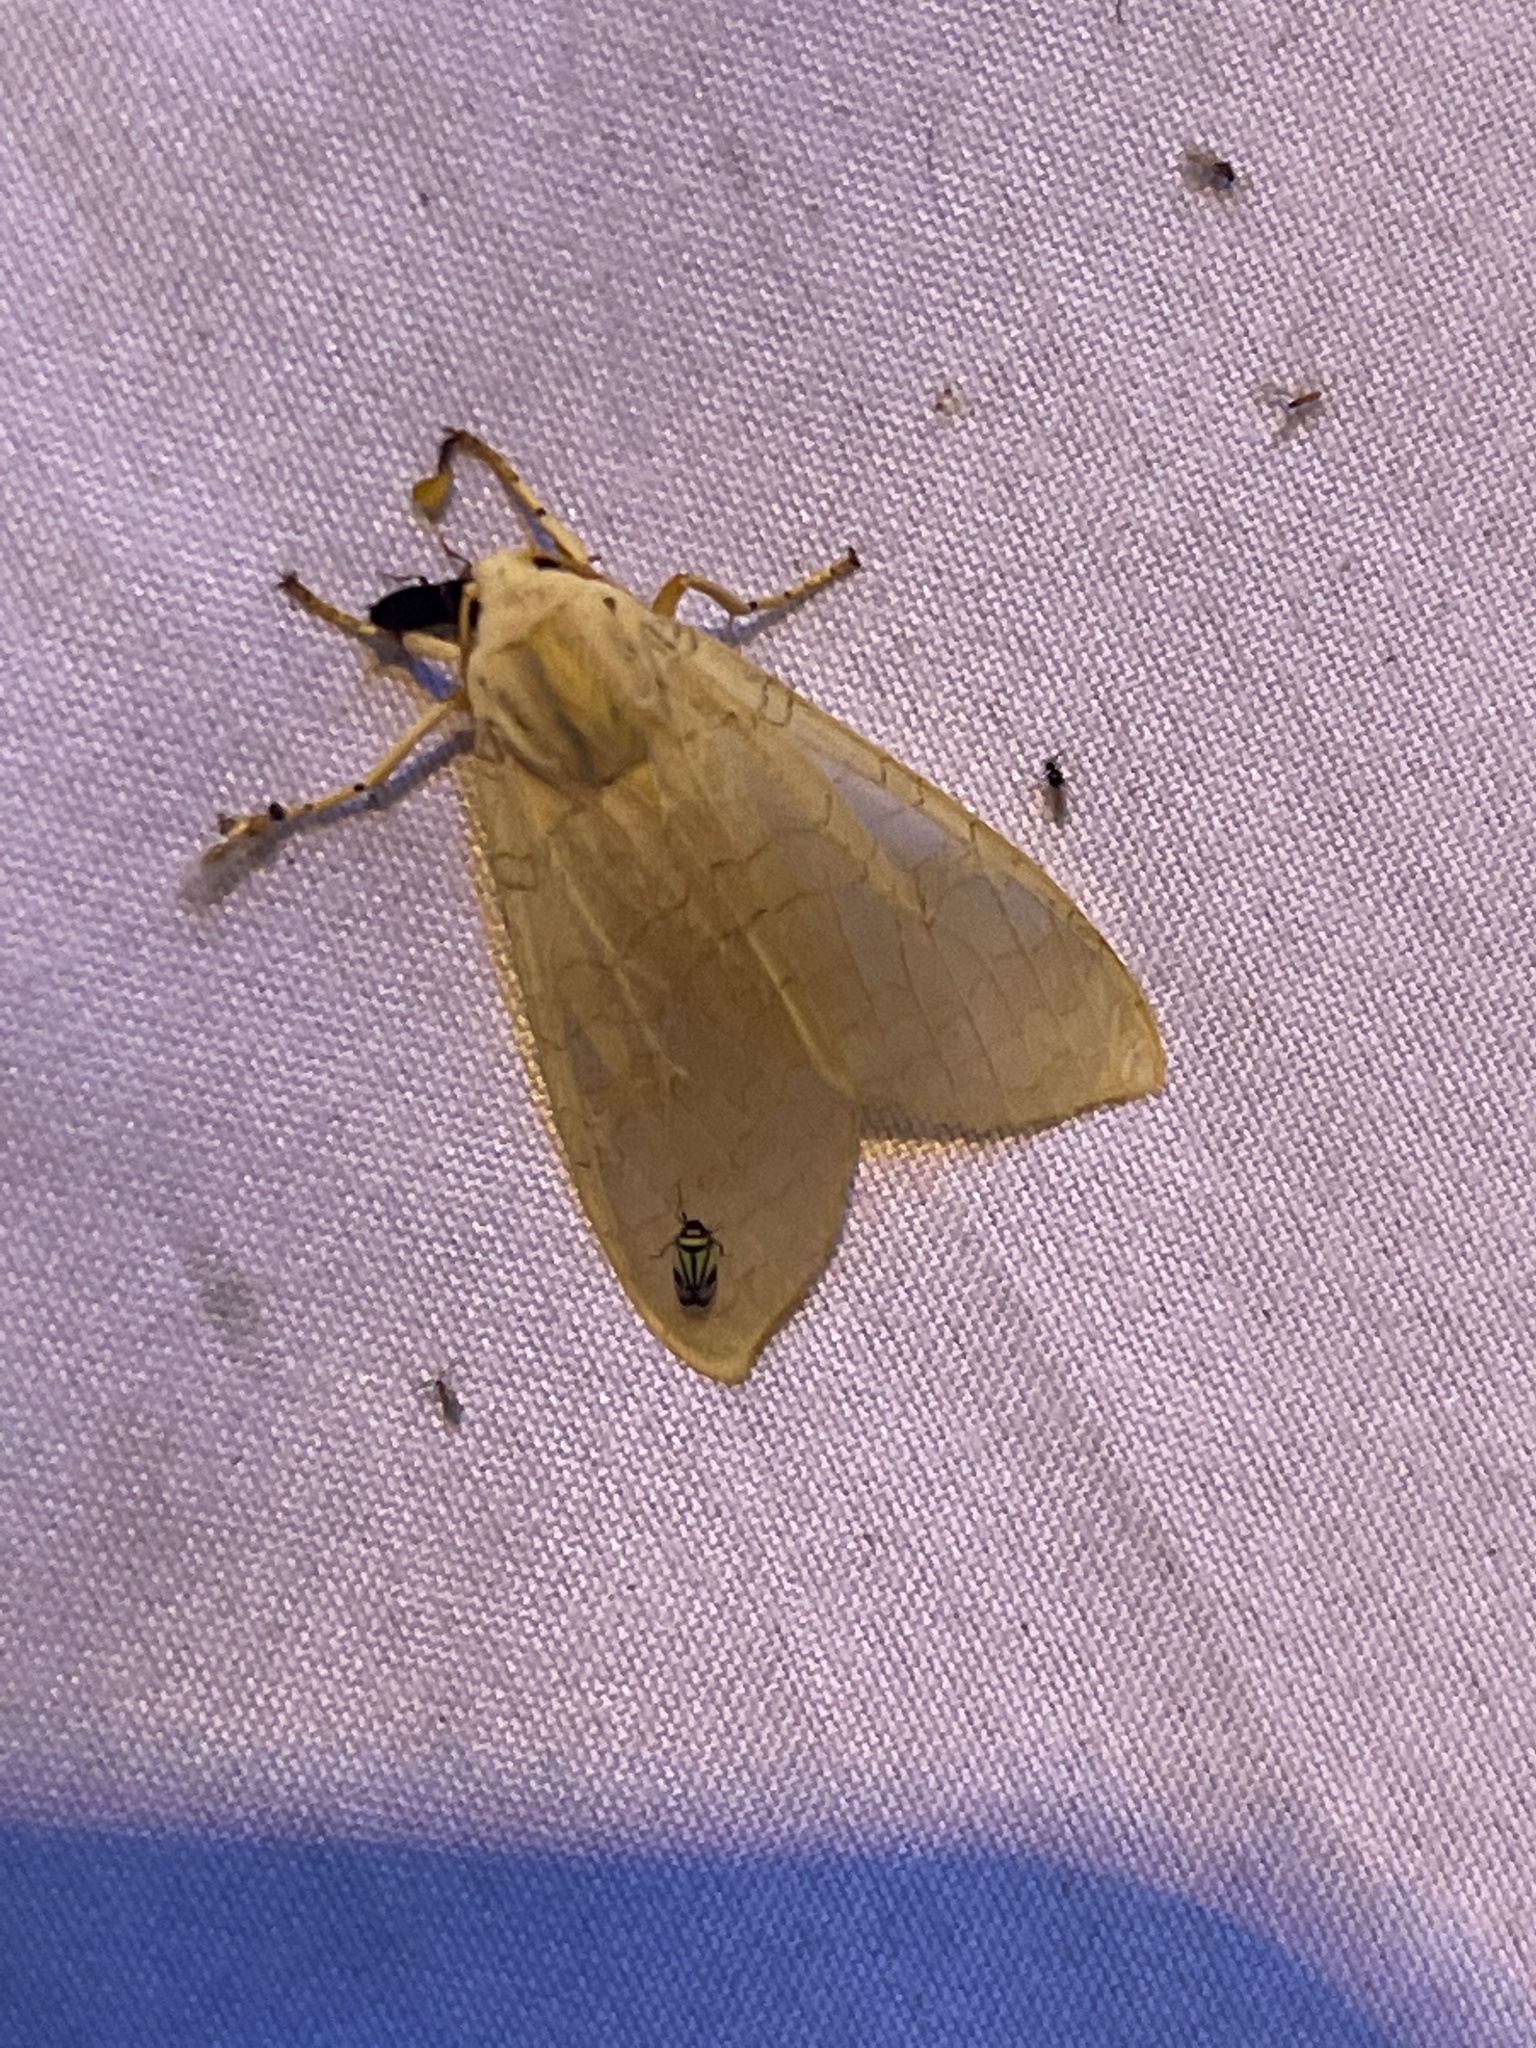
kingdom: Animalia
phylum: Arthropoda
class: Insecta
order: Lepidoptera
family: Erebidae
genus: Halysidota
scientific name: Halysidota
